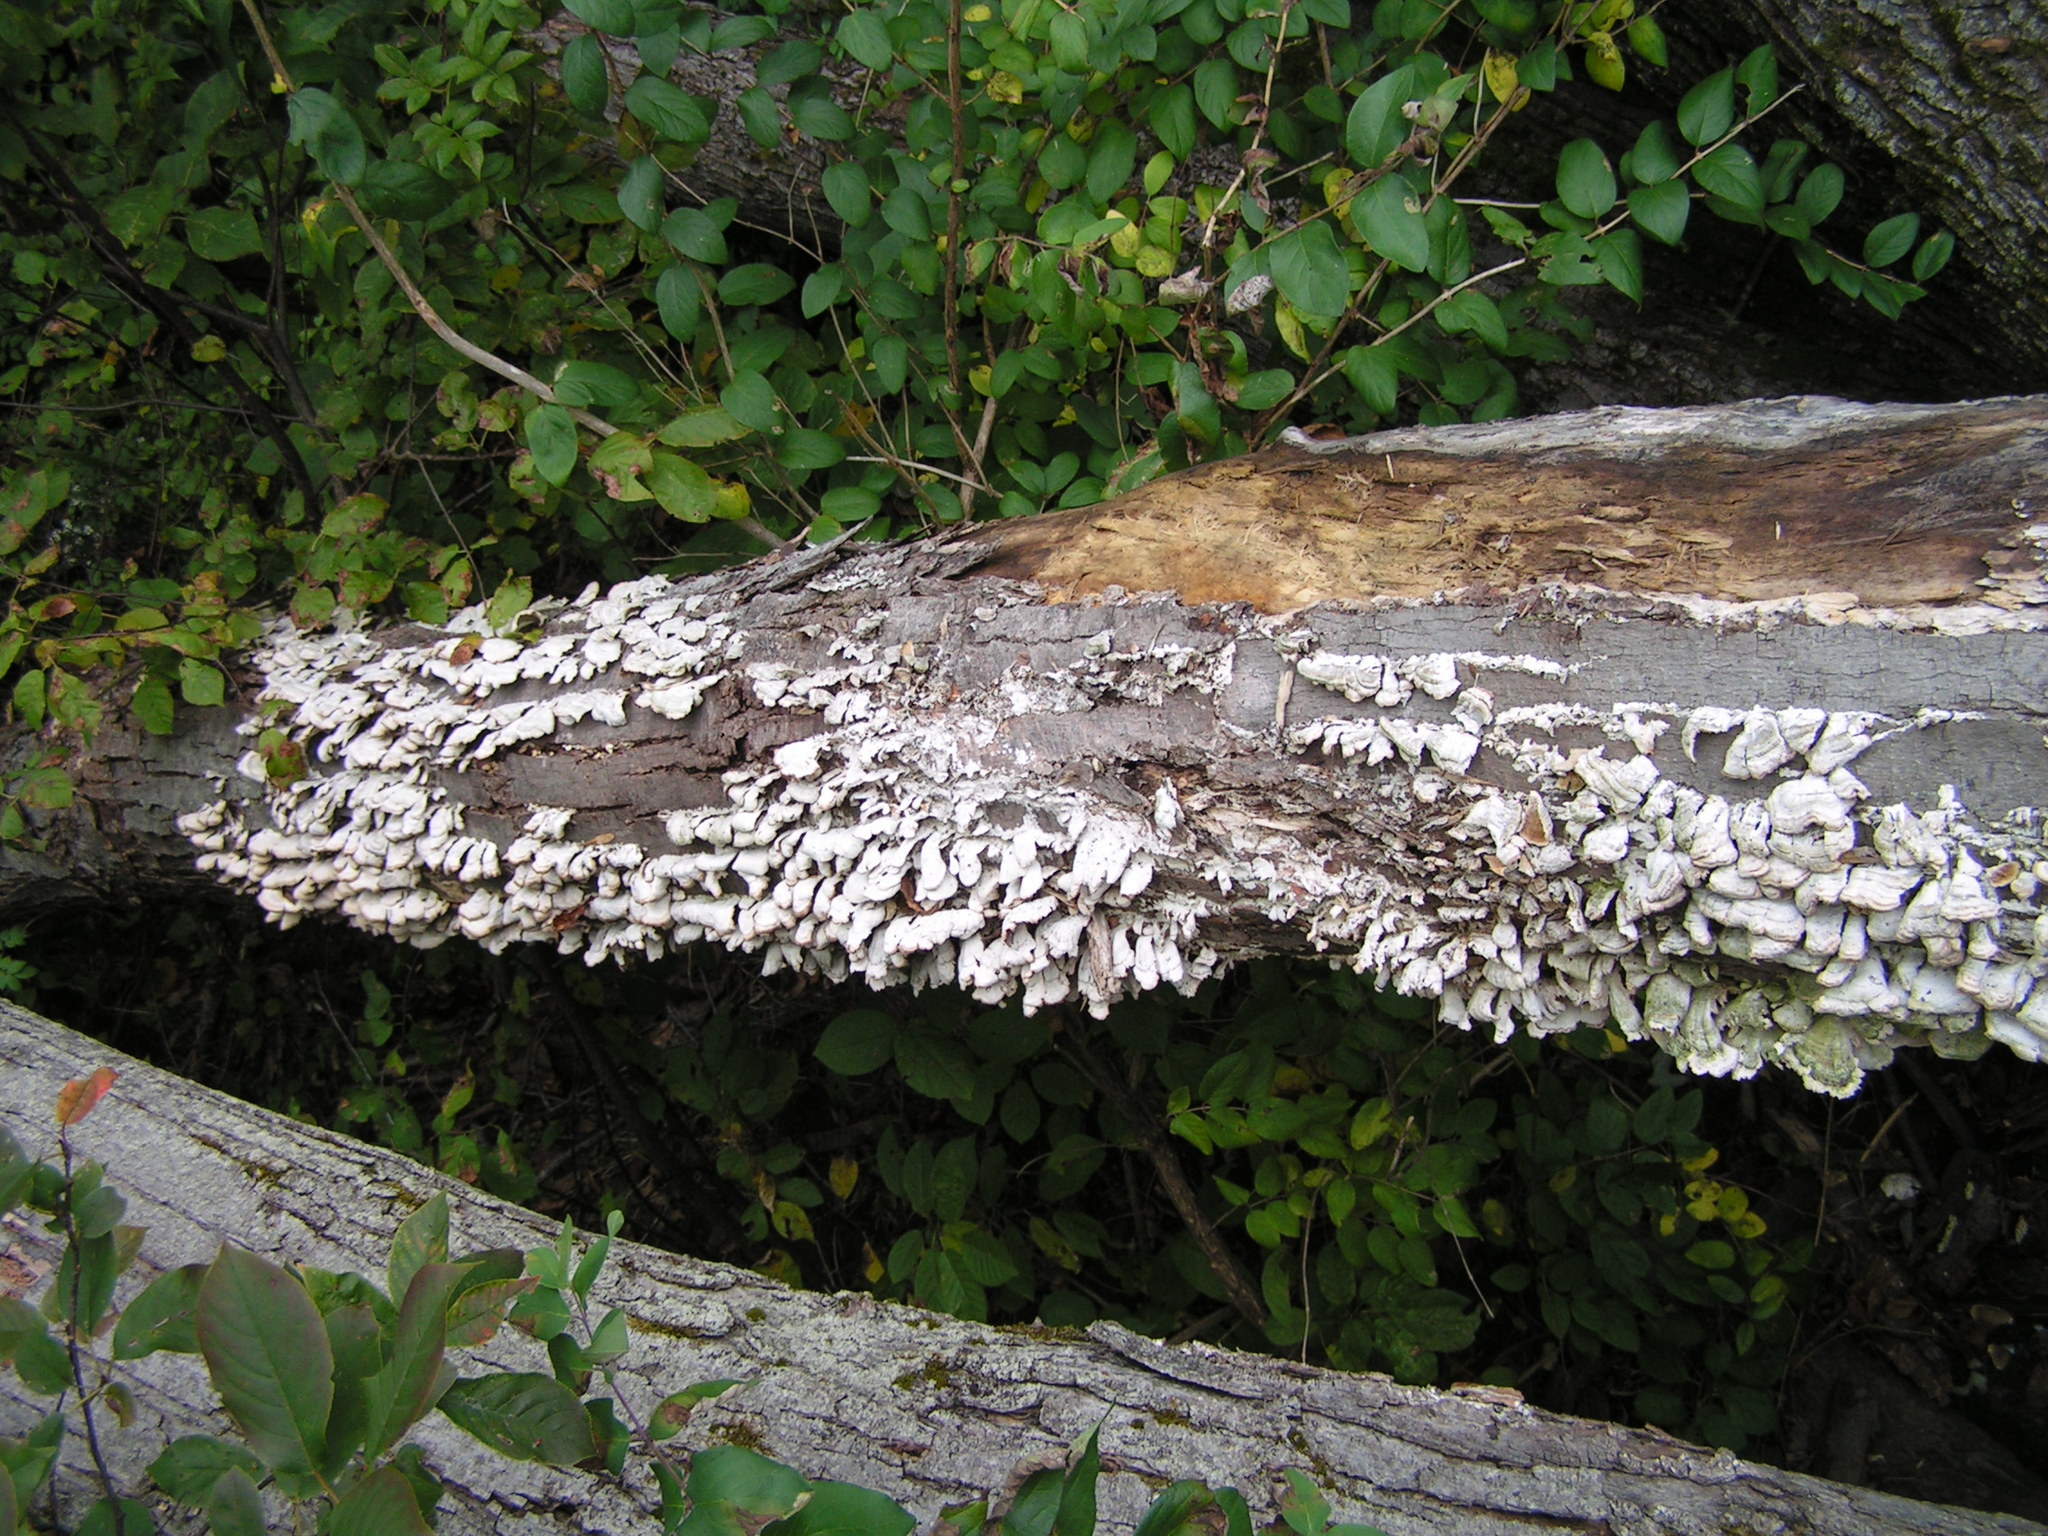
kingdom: Fungi
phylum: Basidiomycota
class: Agaricomycetes
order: Hymenochaetales
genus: Trichaptum
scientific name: Trichaptum biforme
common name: Violet-toothed polypore
